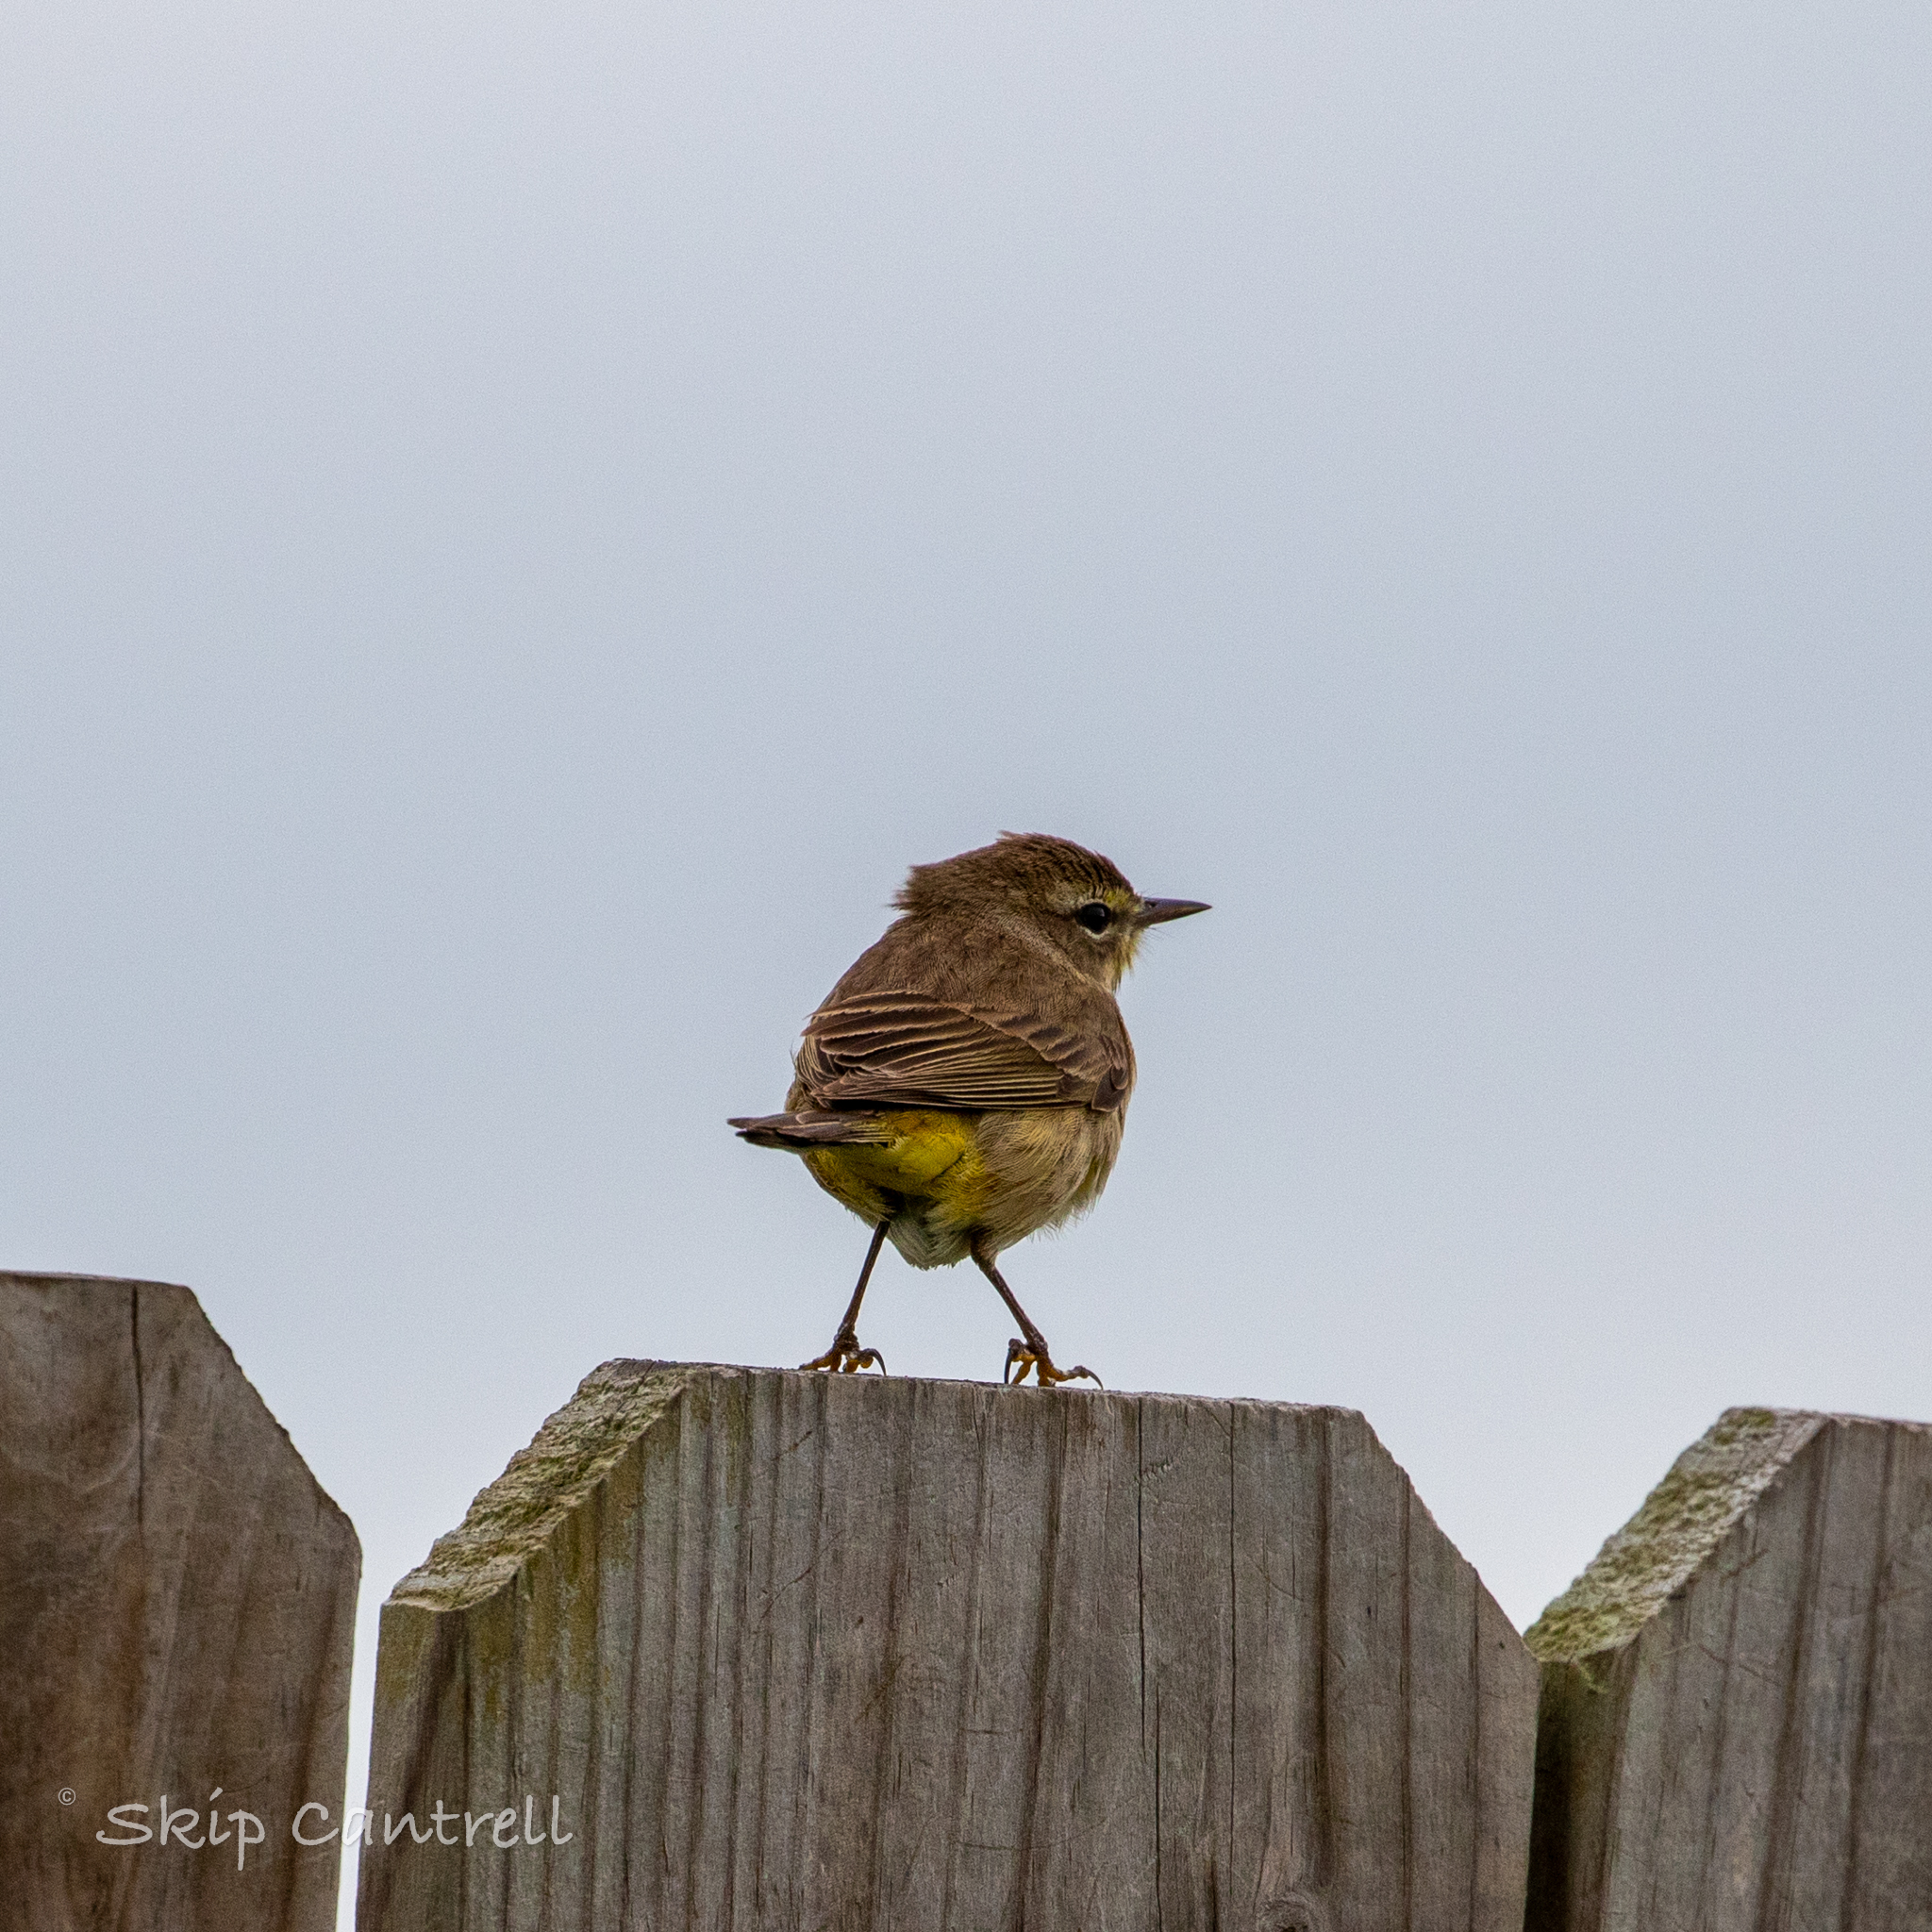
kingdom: Animalia
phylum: Chordata
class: Aves
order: Passeriformes
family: Parulidae
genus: Setophaga
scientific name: Setophaga palmarum
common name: Palm warbler
